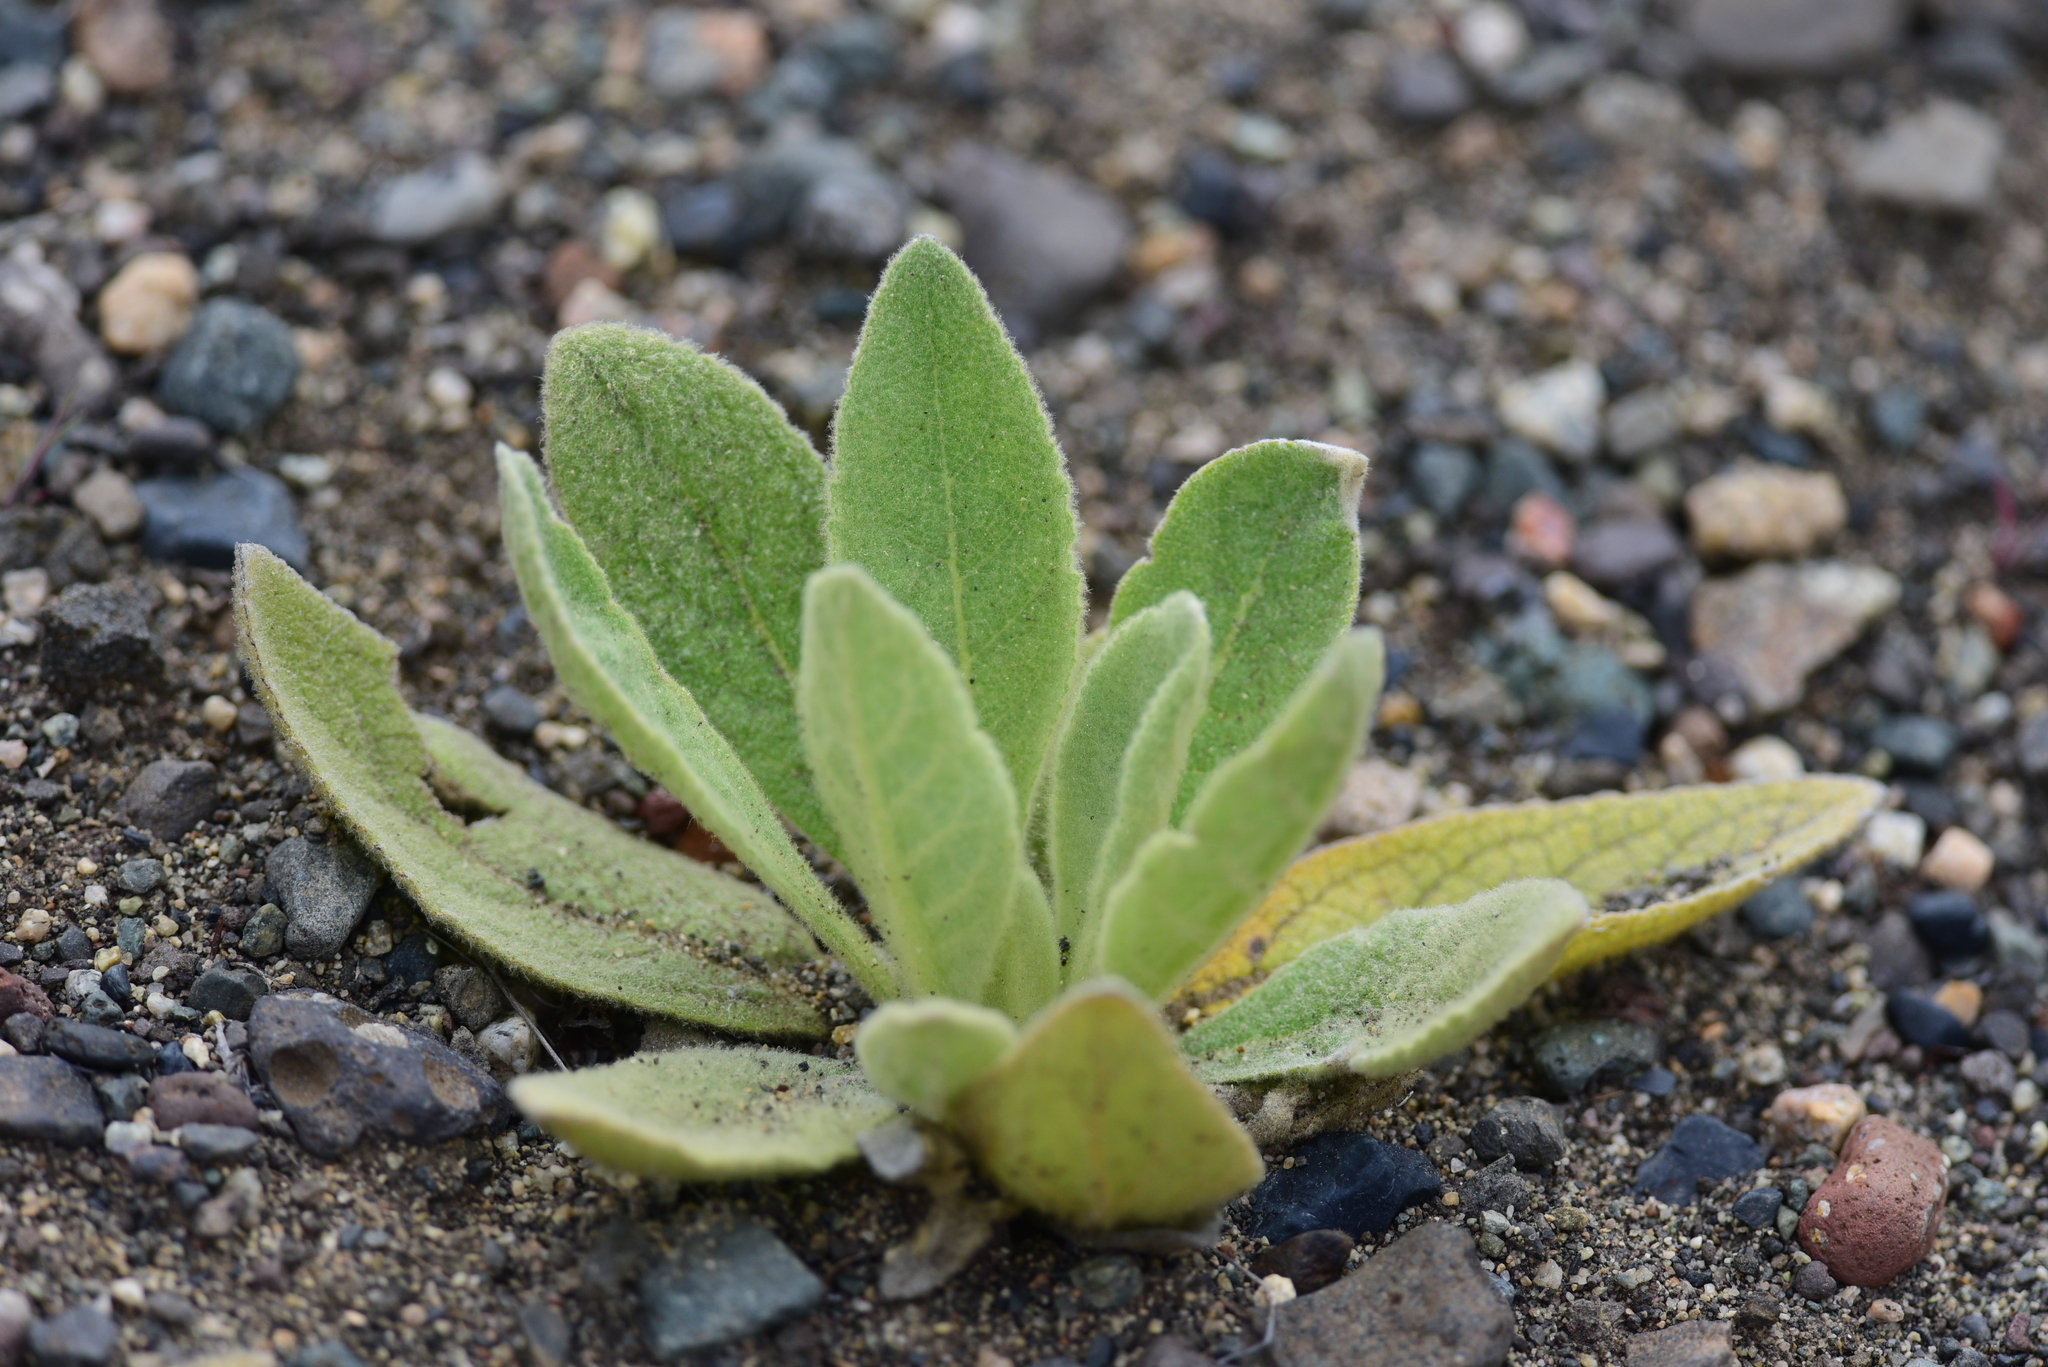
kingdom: Plantae
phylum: Tracheophyta
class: Magnoliopsida
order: Lamiales
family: Scrophulariaceae
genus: Verbascum
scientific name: Verbascum thapsus
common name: Common mullein
